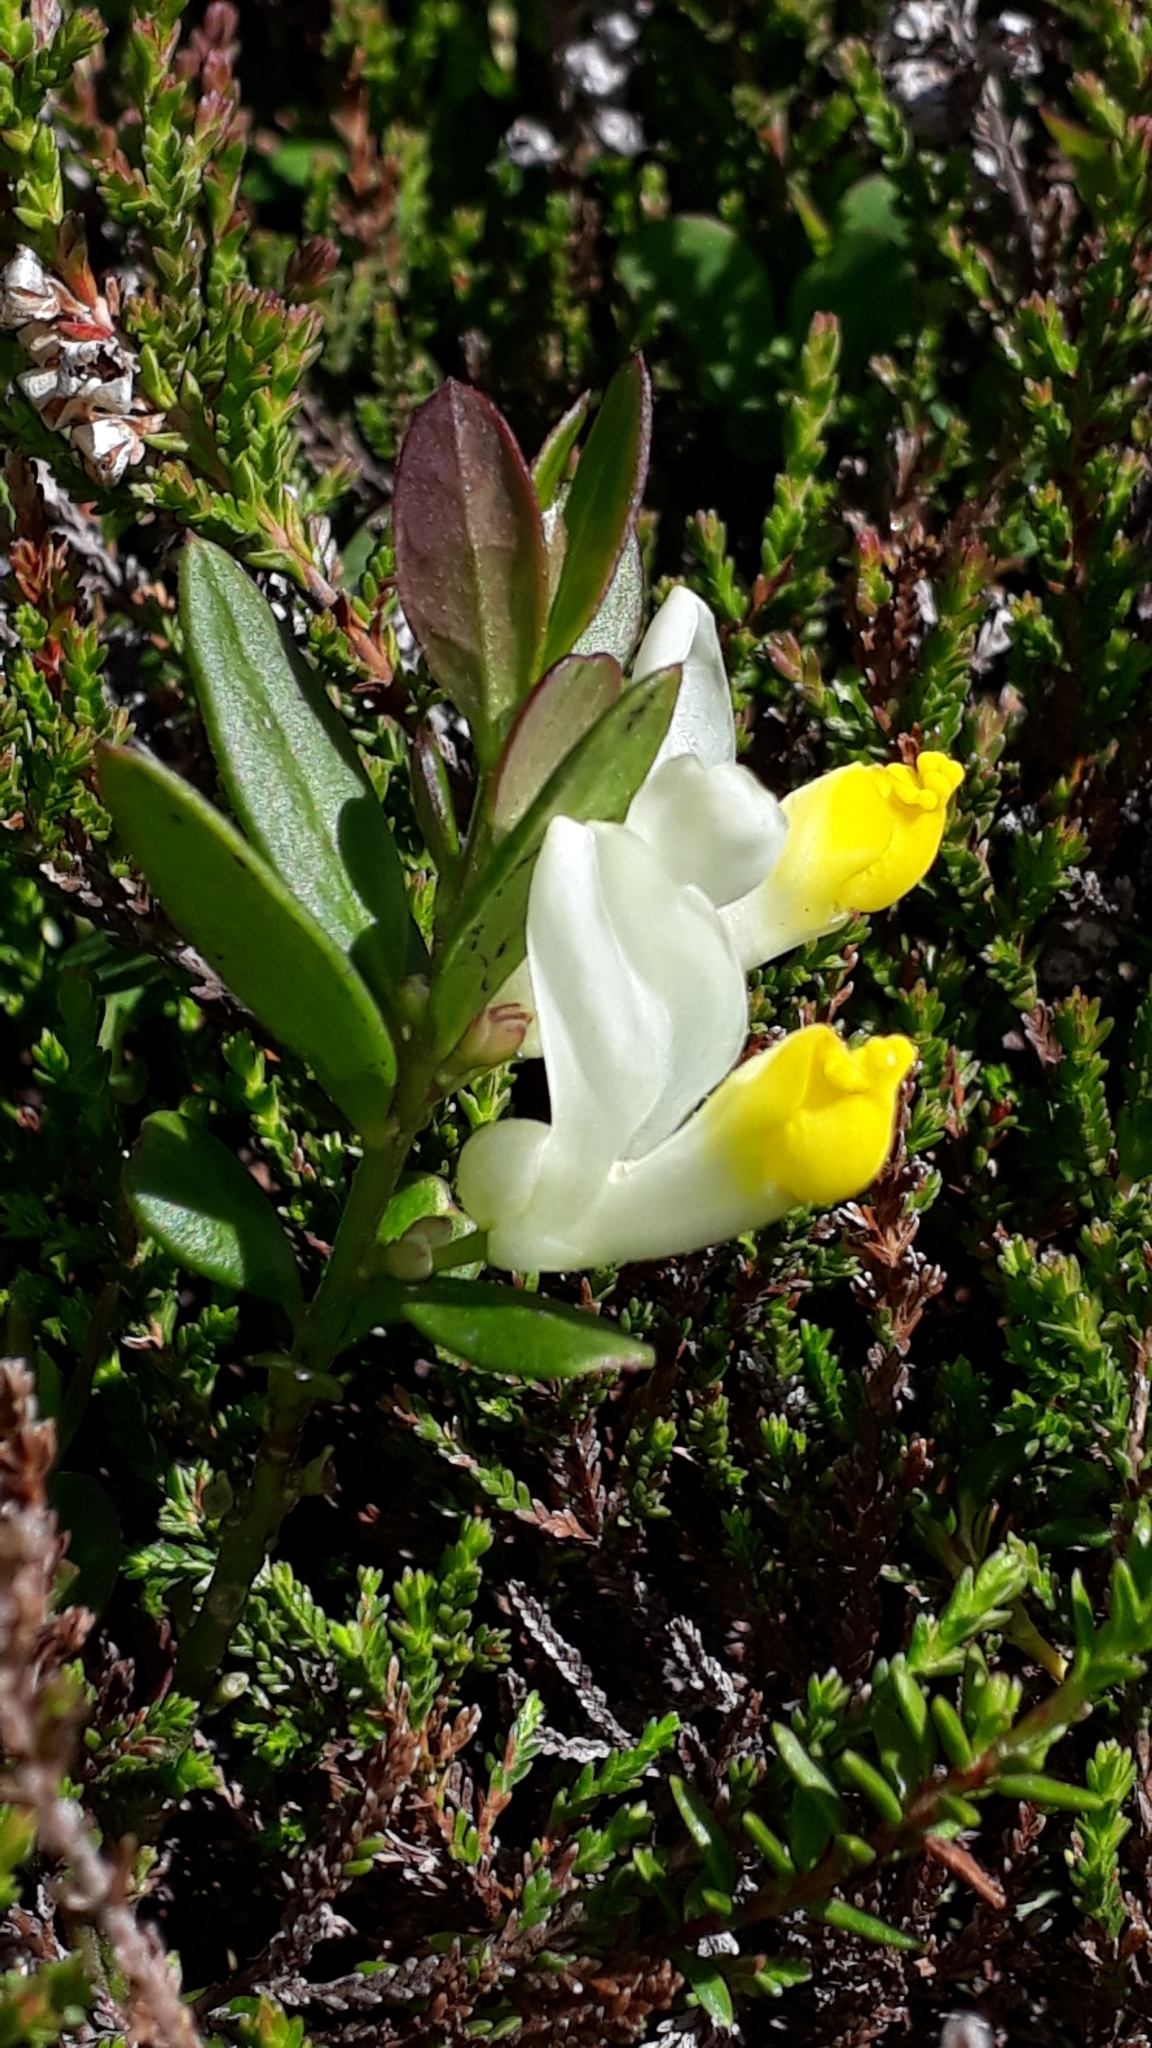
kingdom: Plantae
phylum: Tracheophyta
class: Magnoliopsida
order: Fabales
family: Polygalaceae
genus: Polygaloides
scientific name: Polygaloides chamaebuxus
